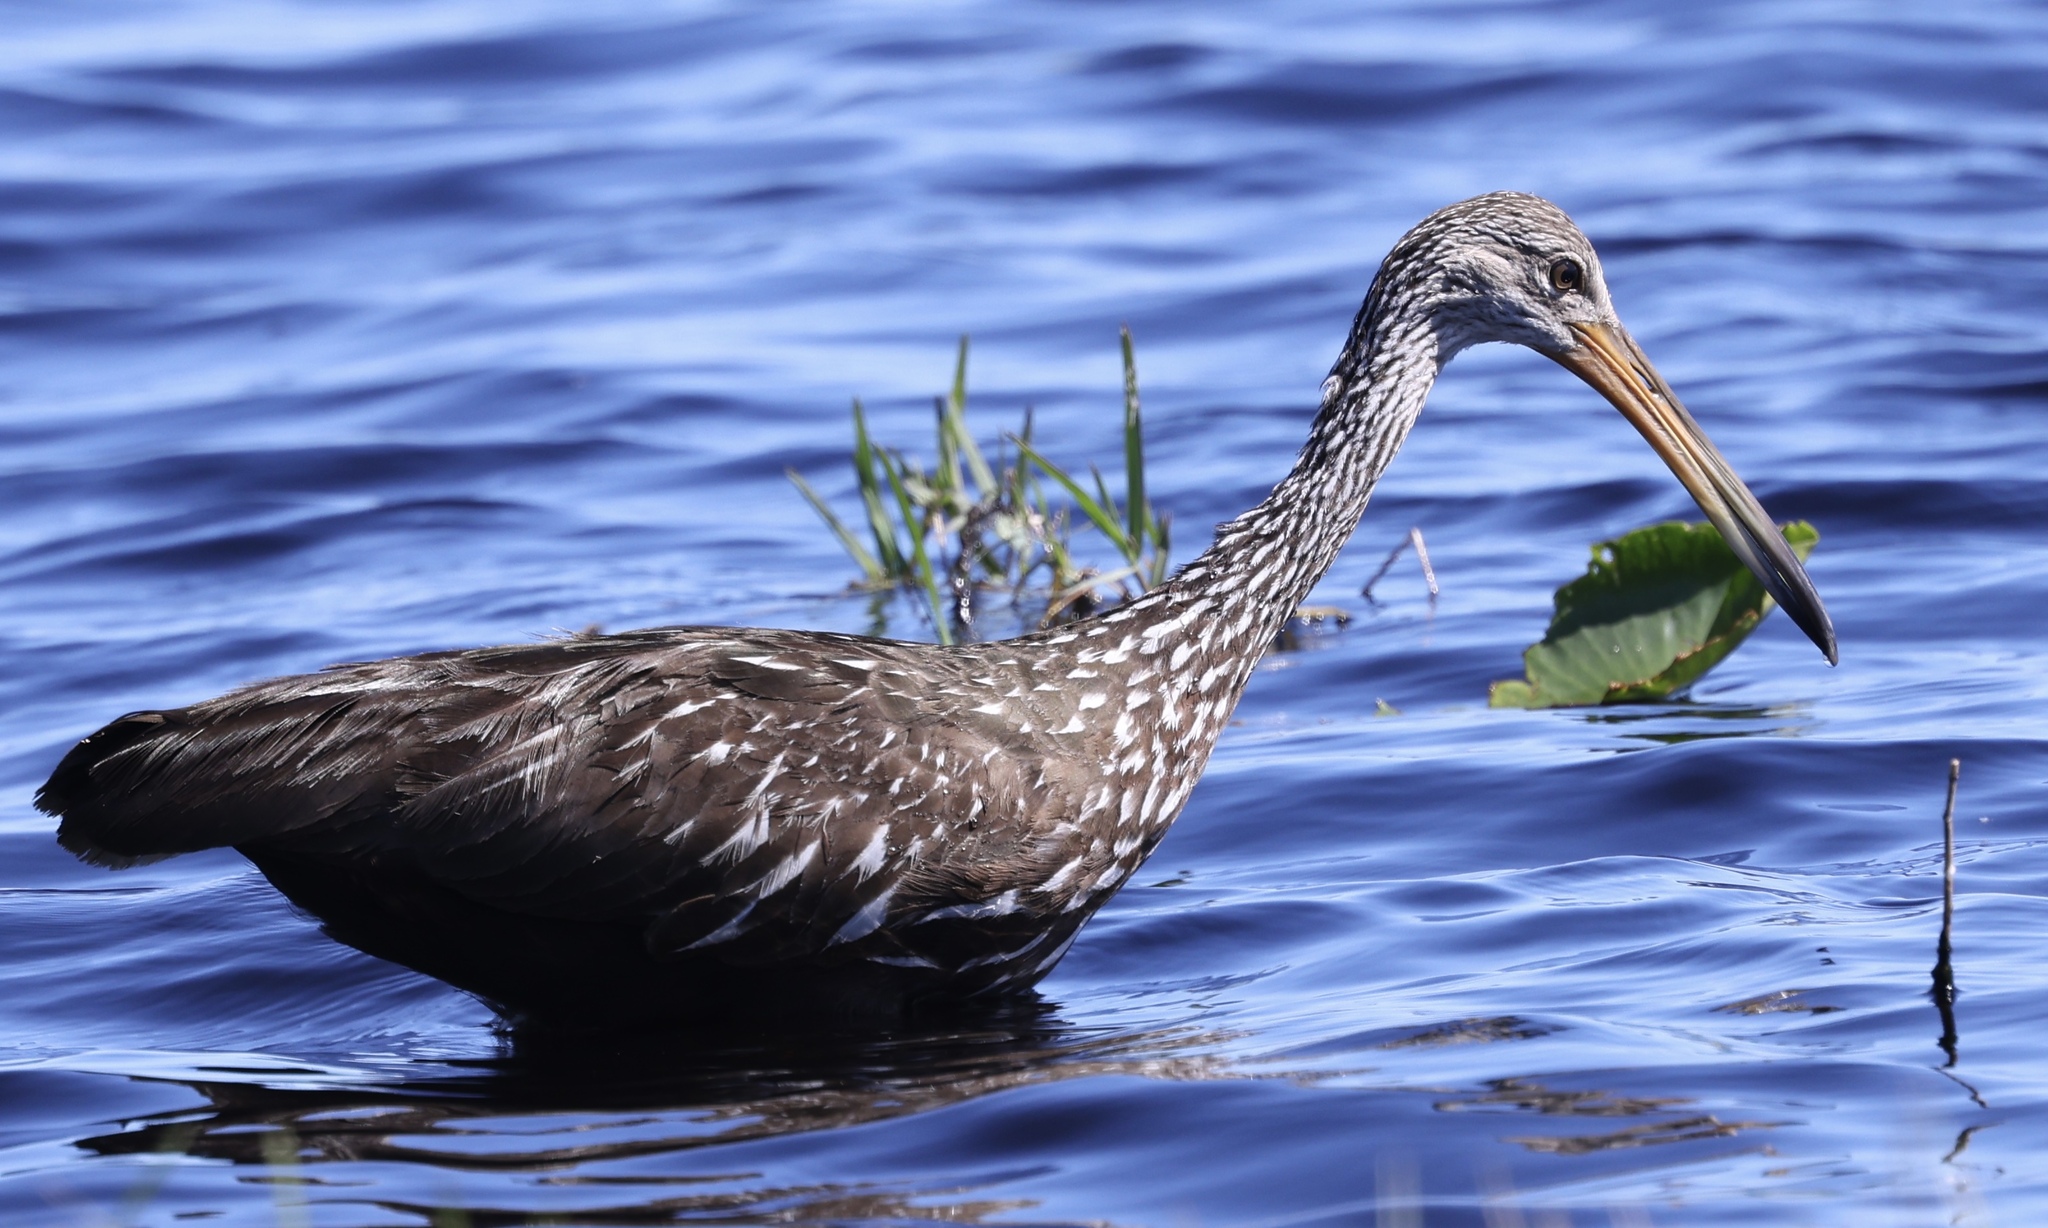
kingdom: Animalia
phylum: Chordata
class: Aves
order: Gruiformes
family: Aramidae
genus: Aramus
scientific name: Aramus guarauna
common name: Limpkin
